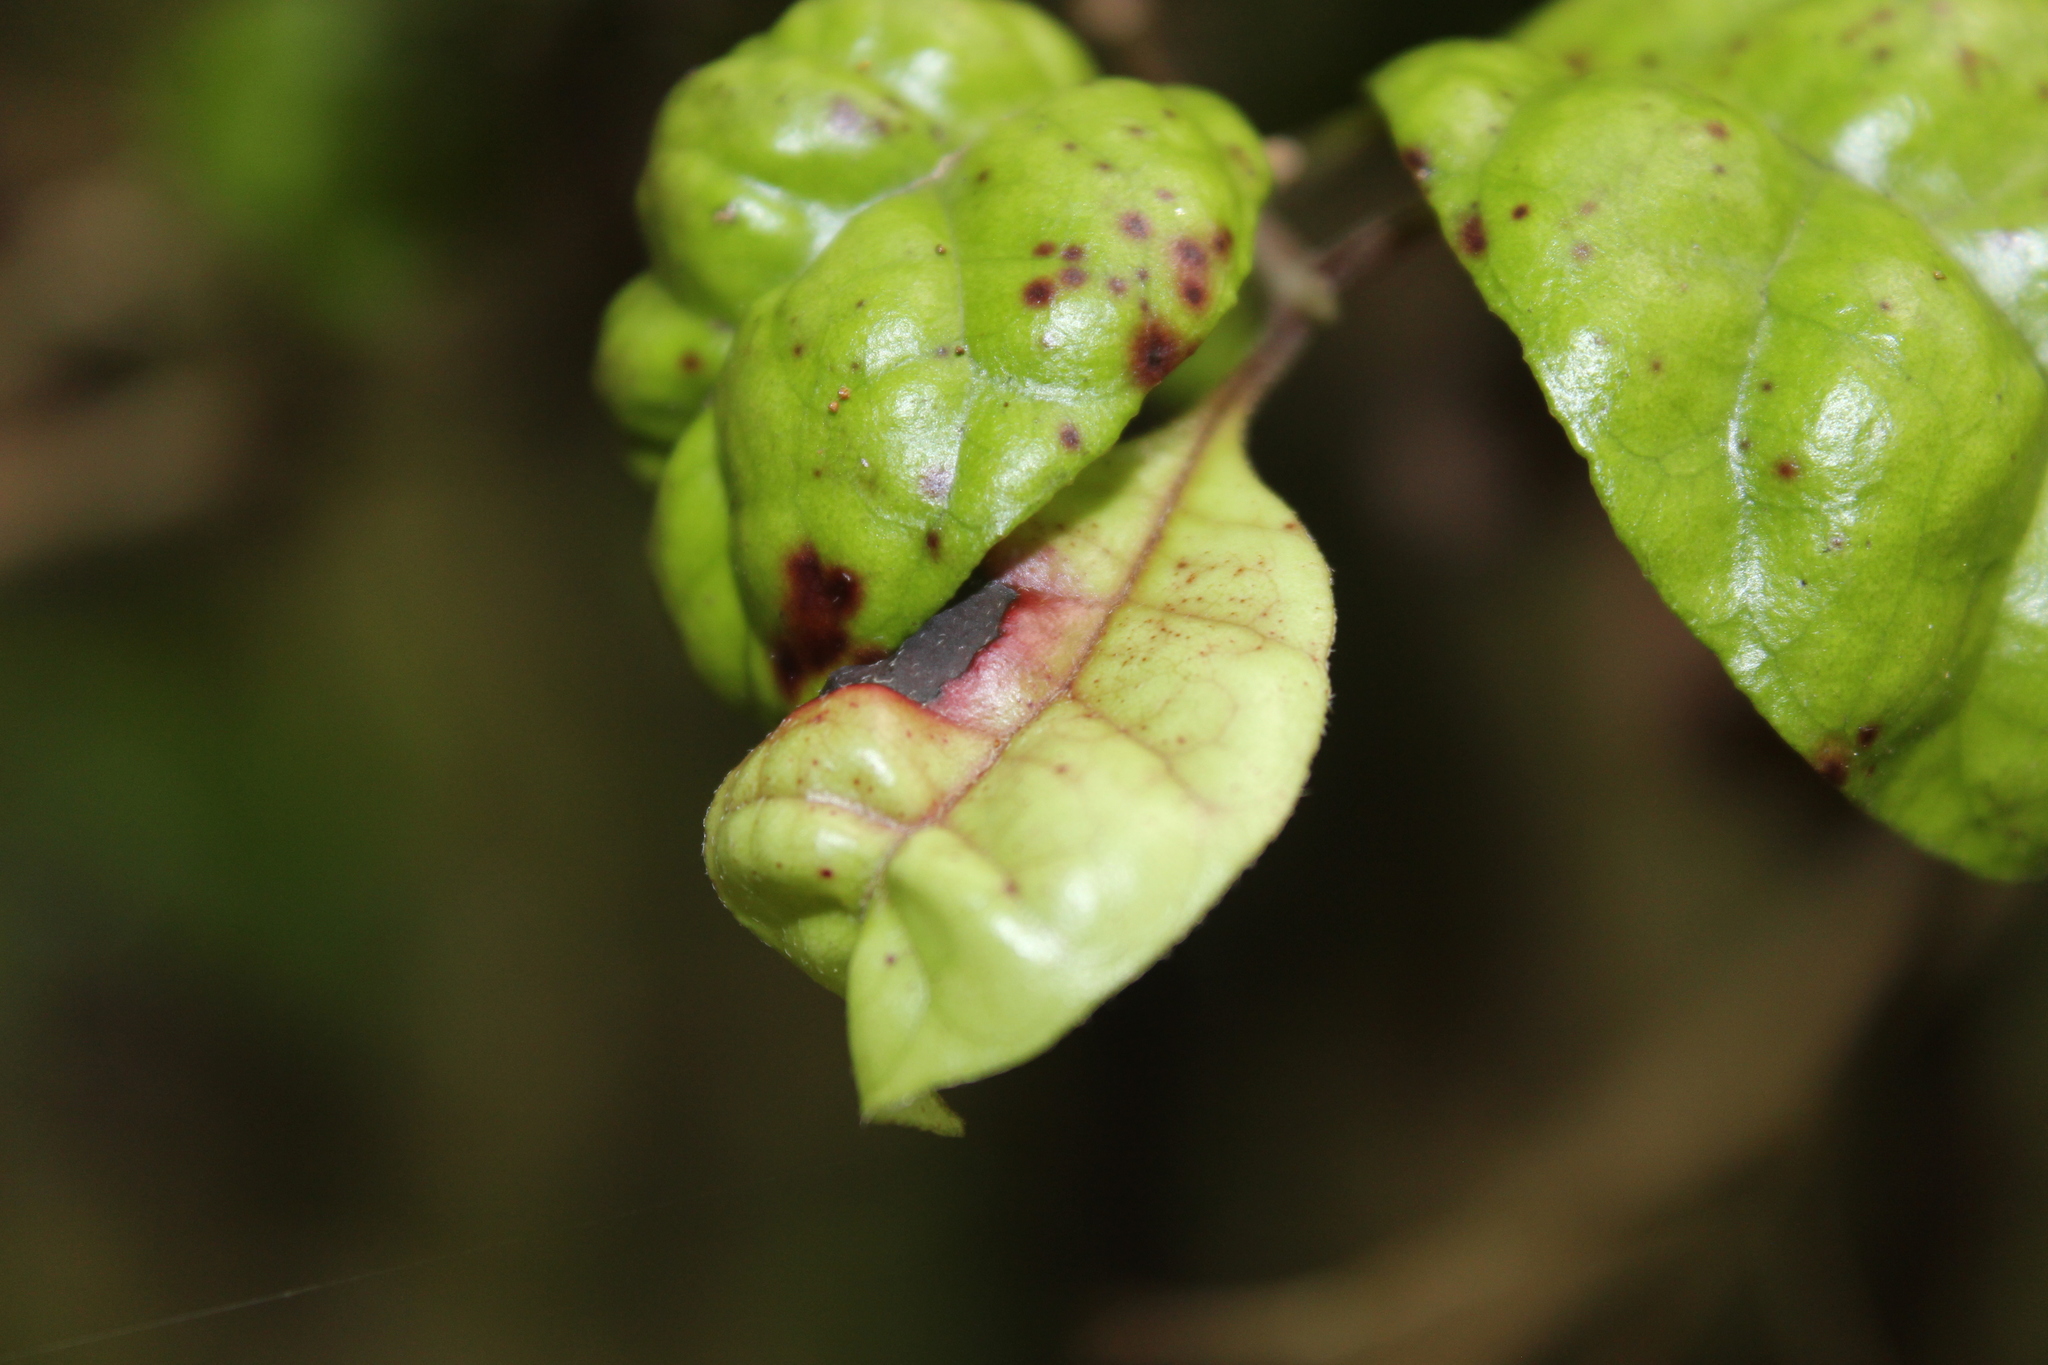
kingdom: Plantae
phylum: Tracheophyta
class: Magnoliopsida
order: Myrtales
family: Myrtaceae
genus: Lophomyrtus
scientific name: Lophomyrtus bullata
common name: Rama rama
